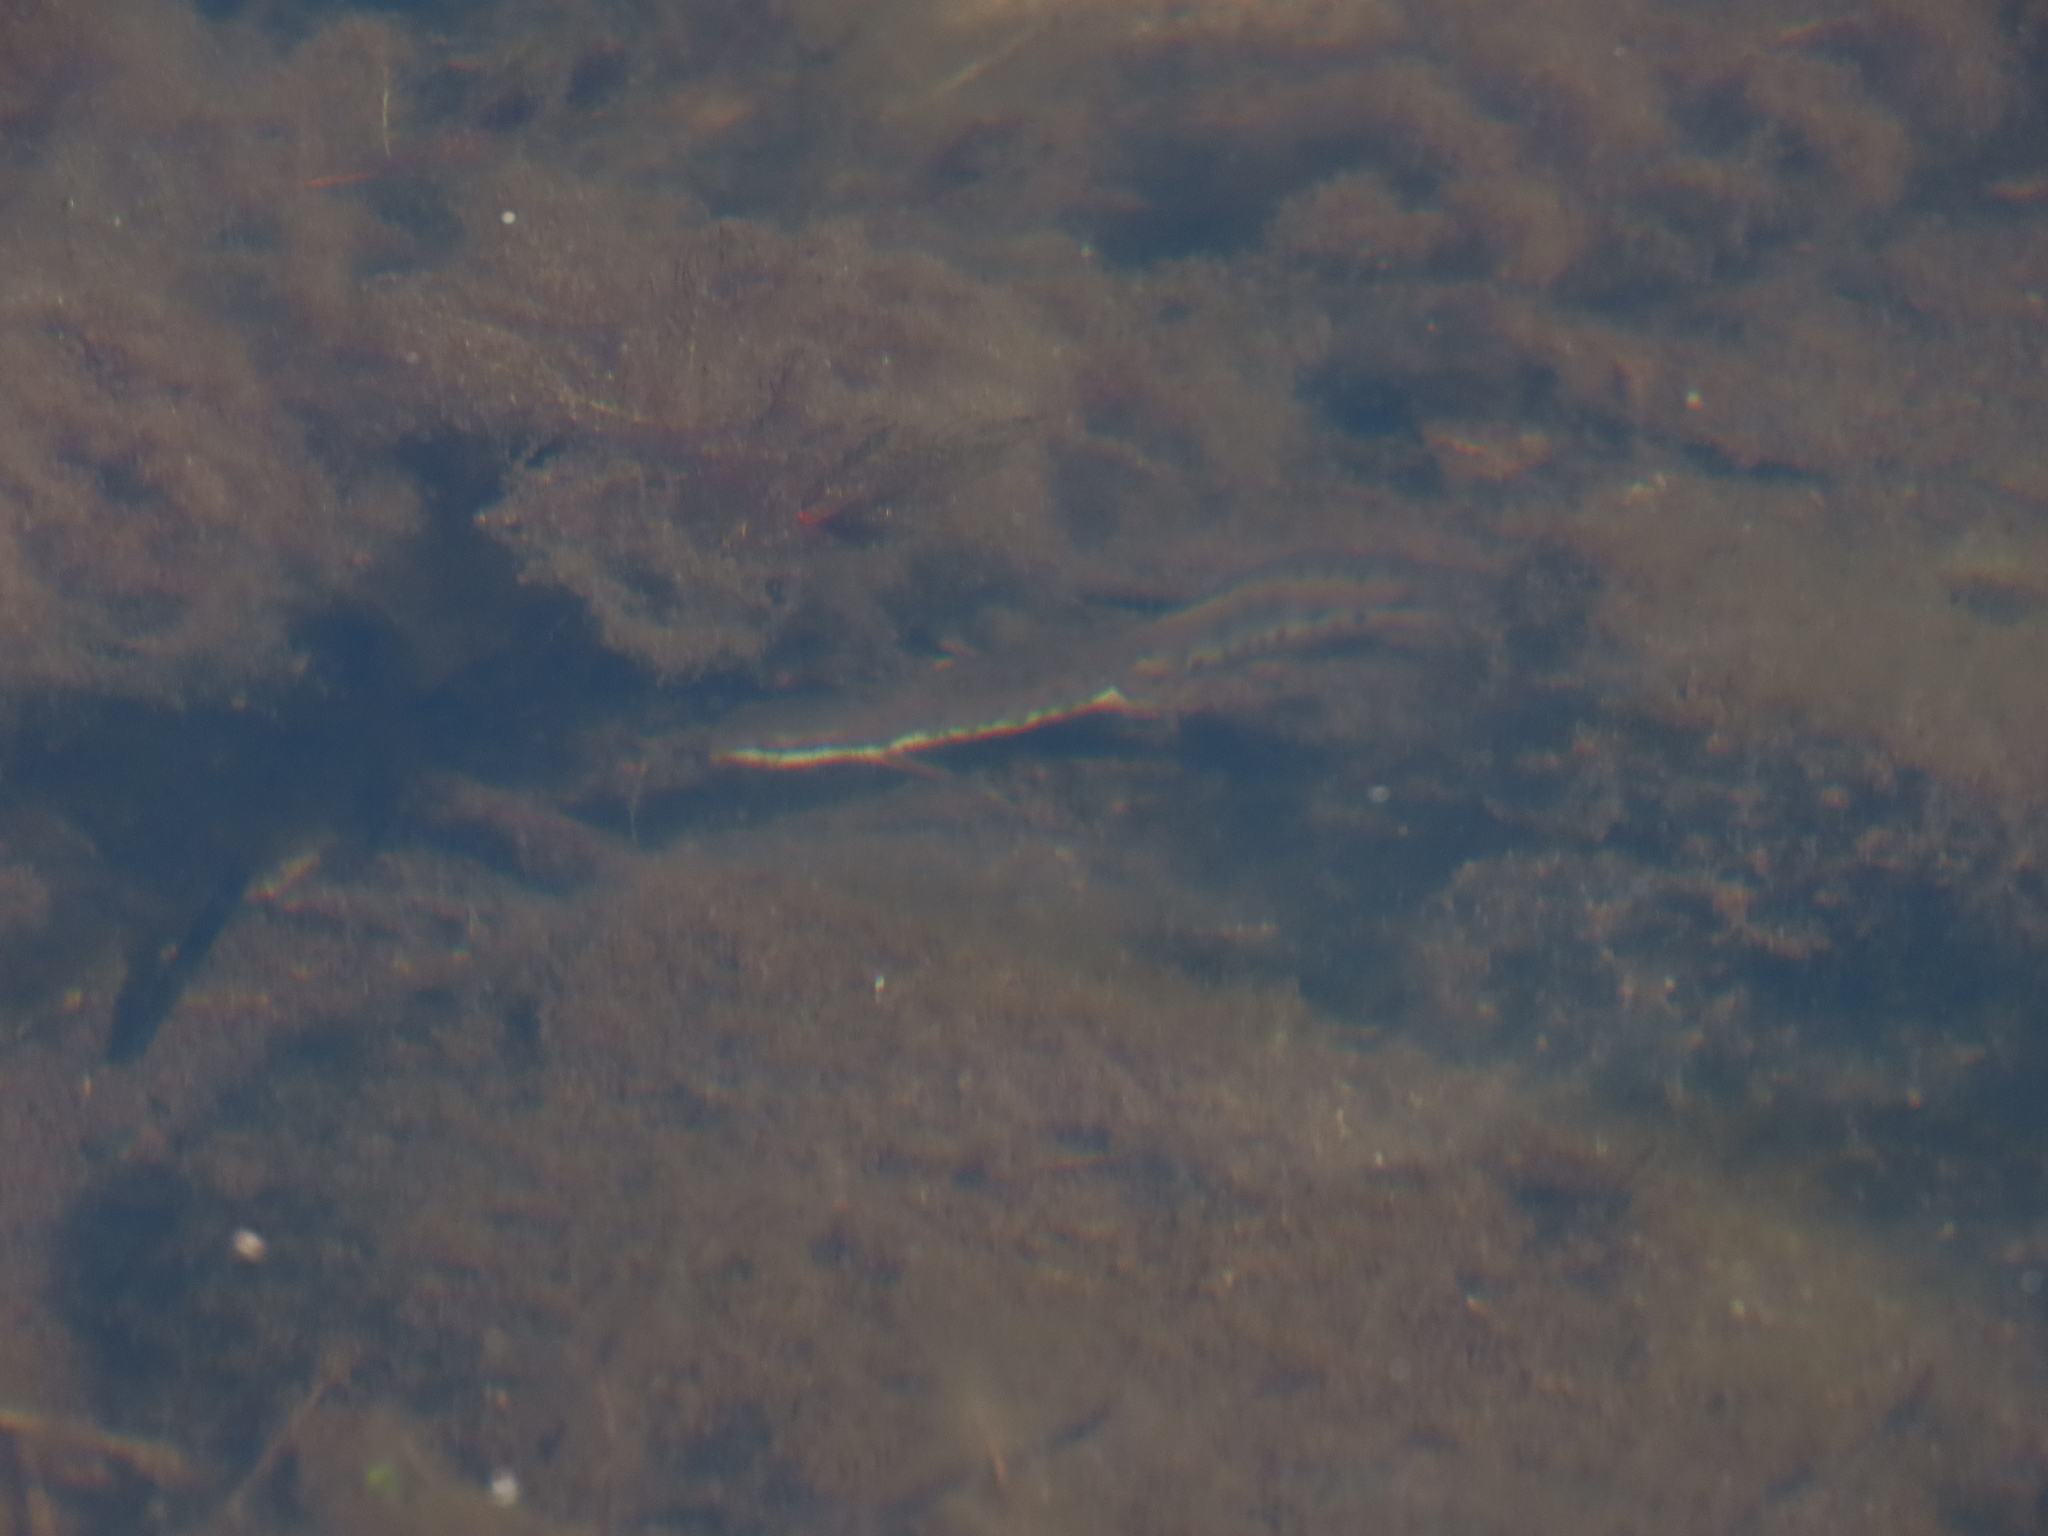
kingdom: Animalia
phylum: Chordata
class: Amphibia
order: Caudata
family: Salamandridae
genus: Notophthalmus
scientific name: Notophthalmus viridescens
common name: Eastern newt
